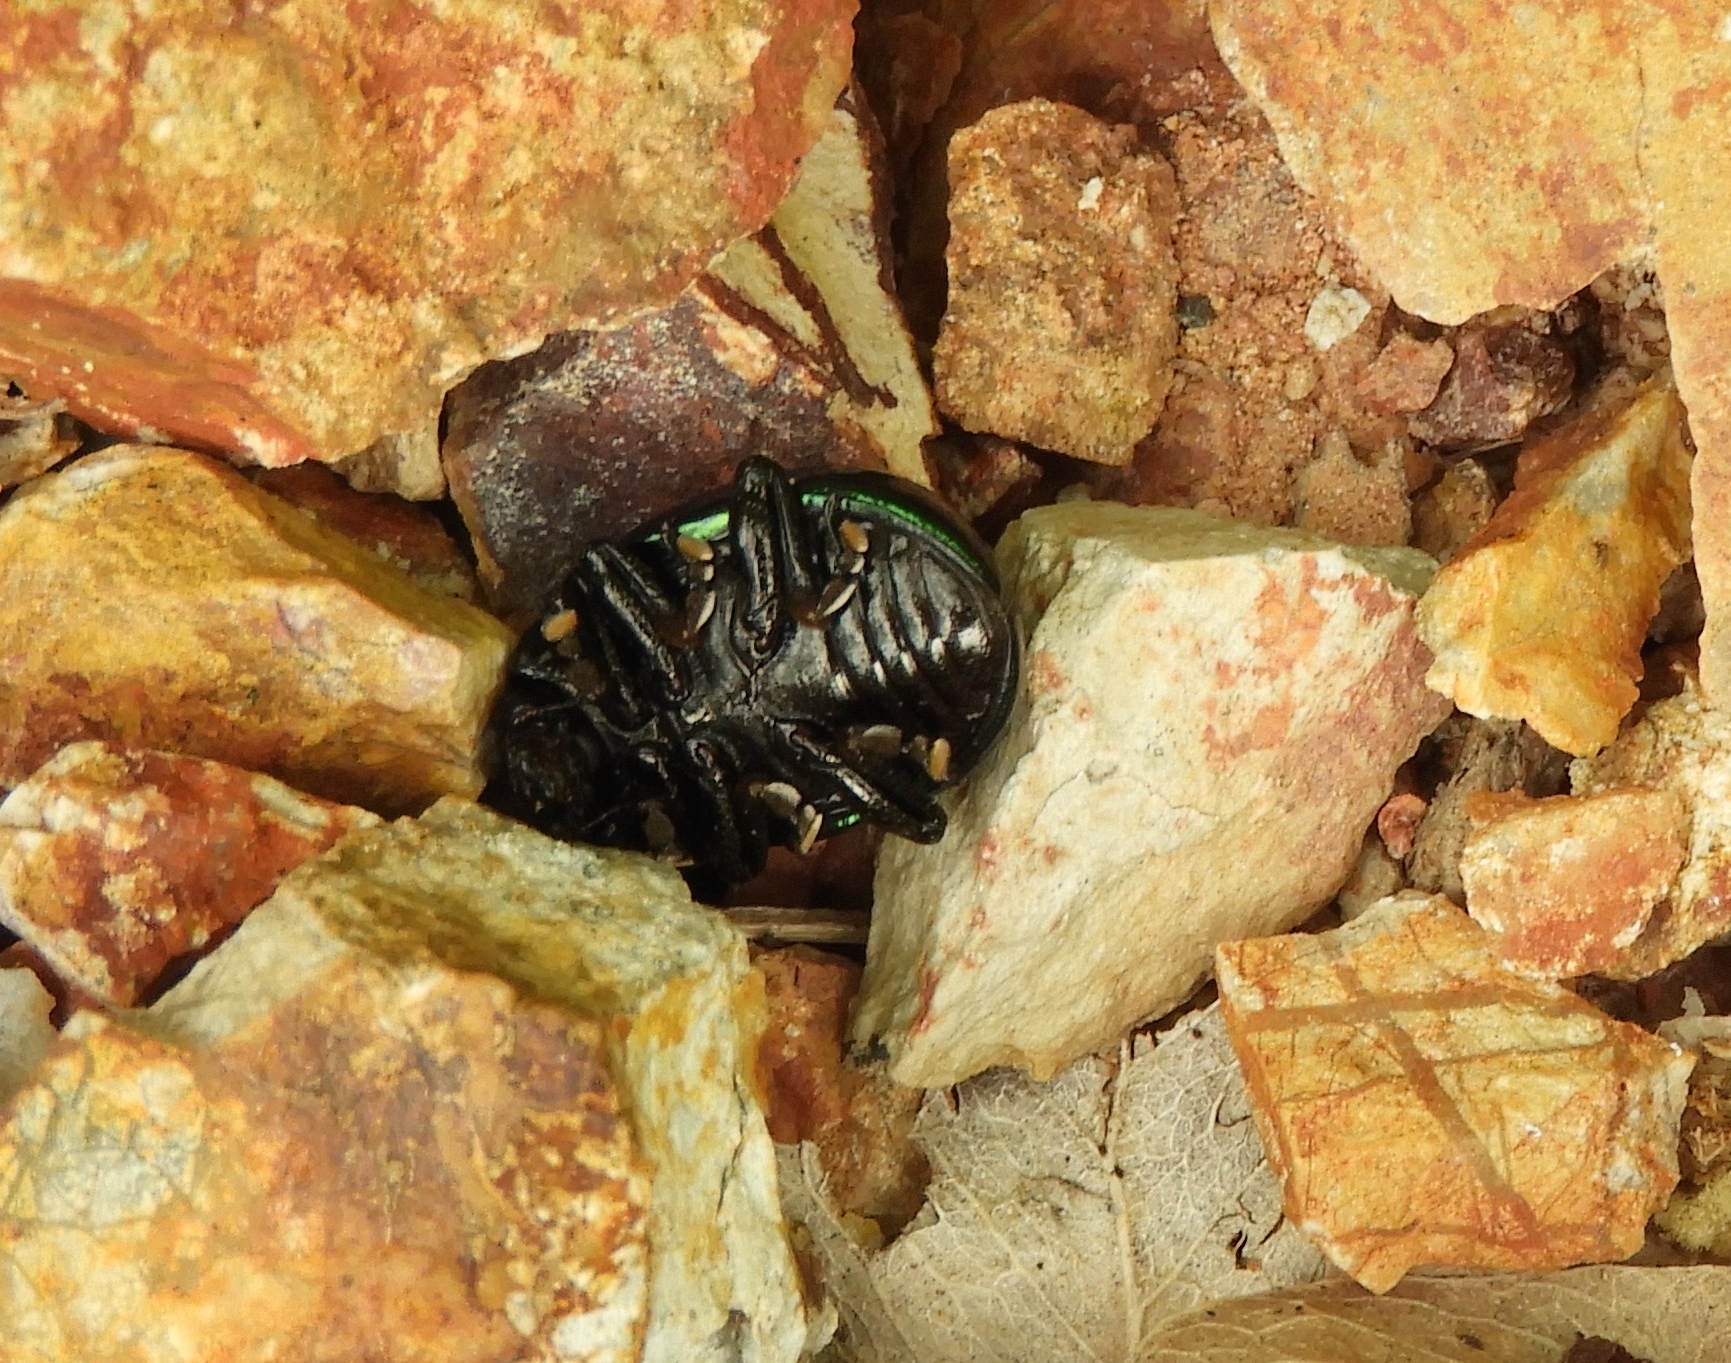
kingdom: Animalia
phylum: Arthropoda
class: Insecta
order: Coleoptera
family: Chrysomelidae
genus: Leptinotarsa
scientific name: Leptinotarsa haldemani
